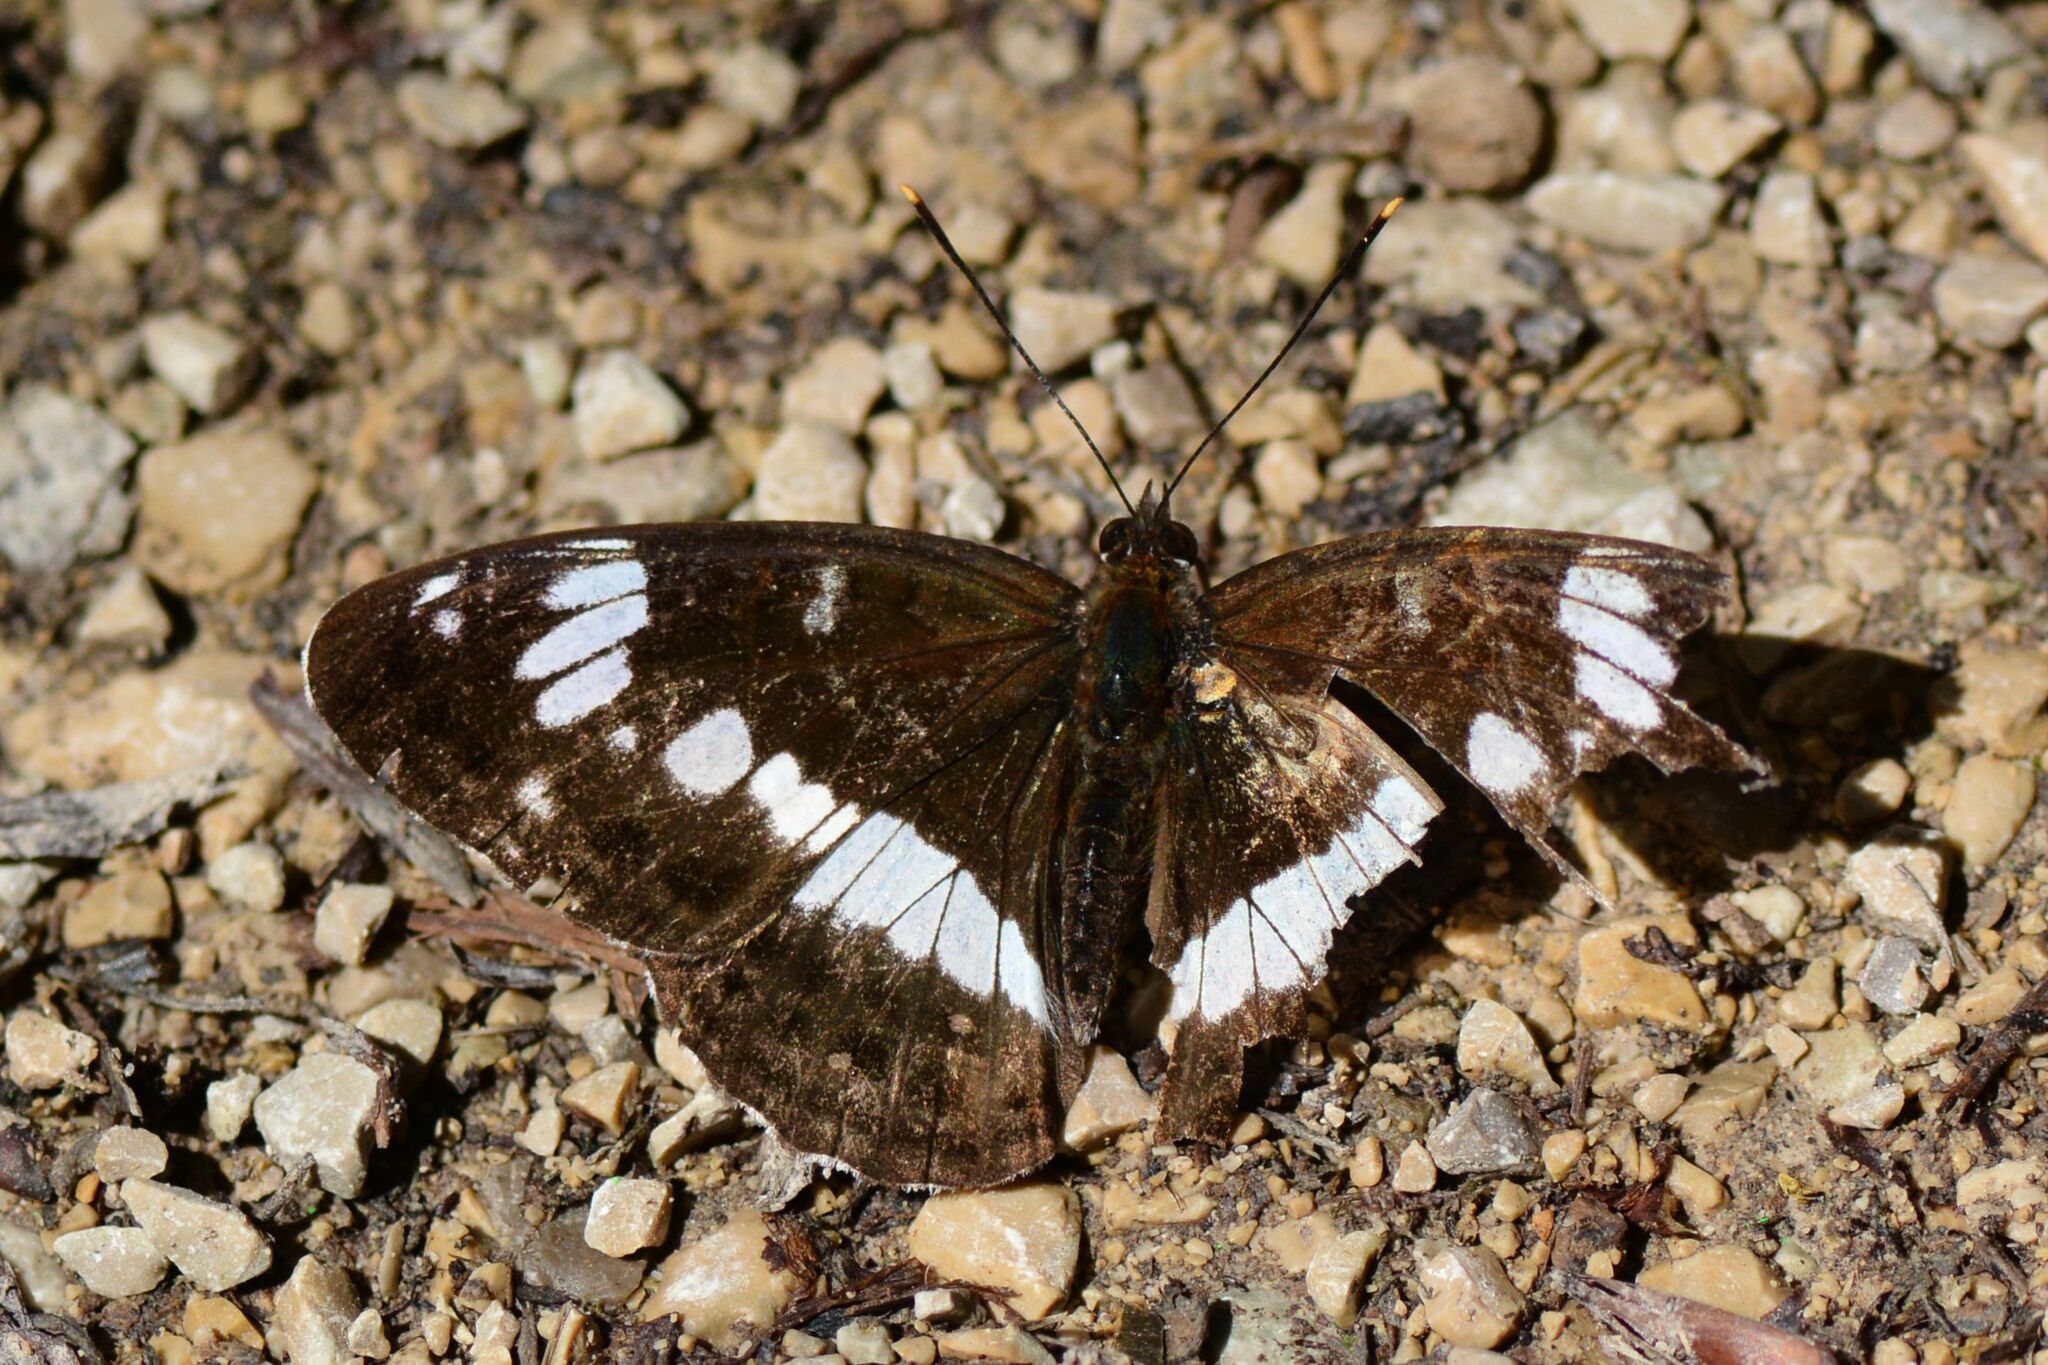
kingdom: Animalia
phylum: Arthropoda
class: Insecta
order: Lepidoptera
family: Nymphalidae
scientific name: Nymphalidae
